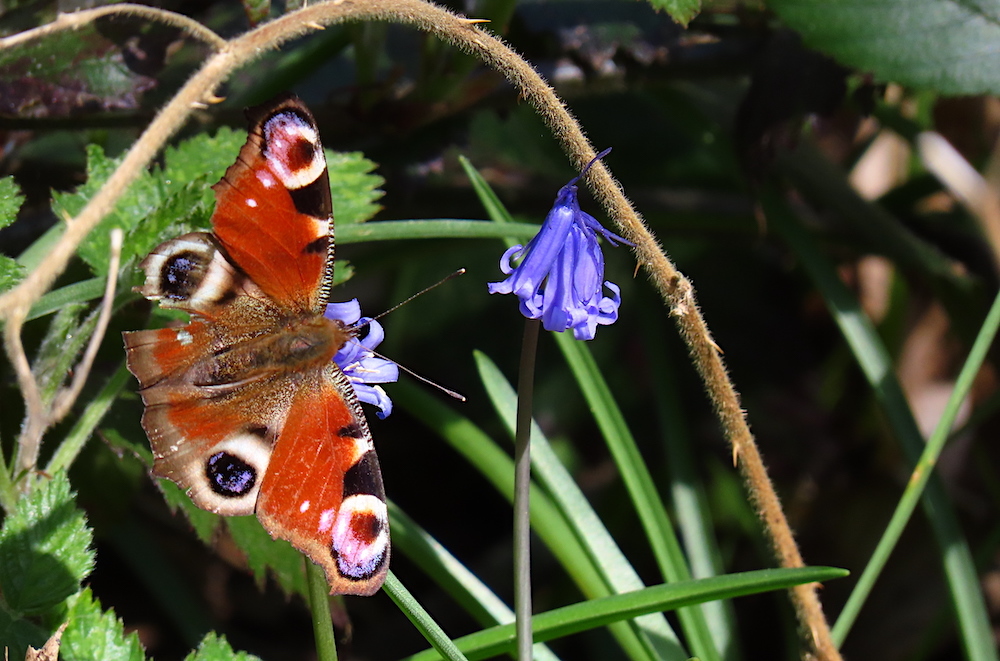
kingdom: Animalia
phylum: Arthropoda
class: Insecta
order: Lepidoptera
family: Nymphalidae
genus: Aglais
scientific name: Aglais io
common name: Peacock
